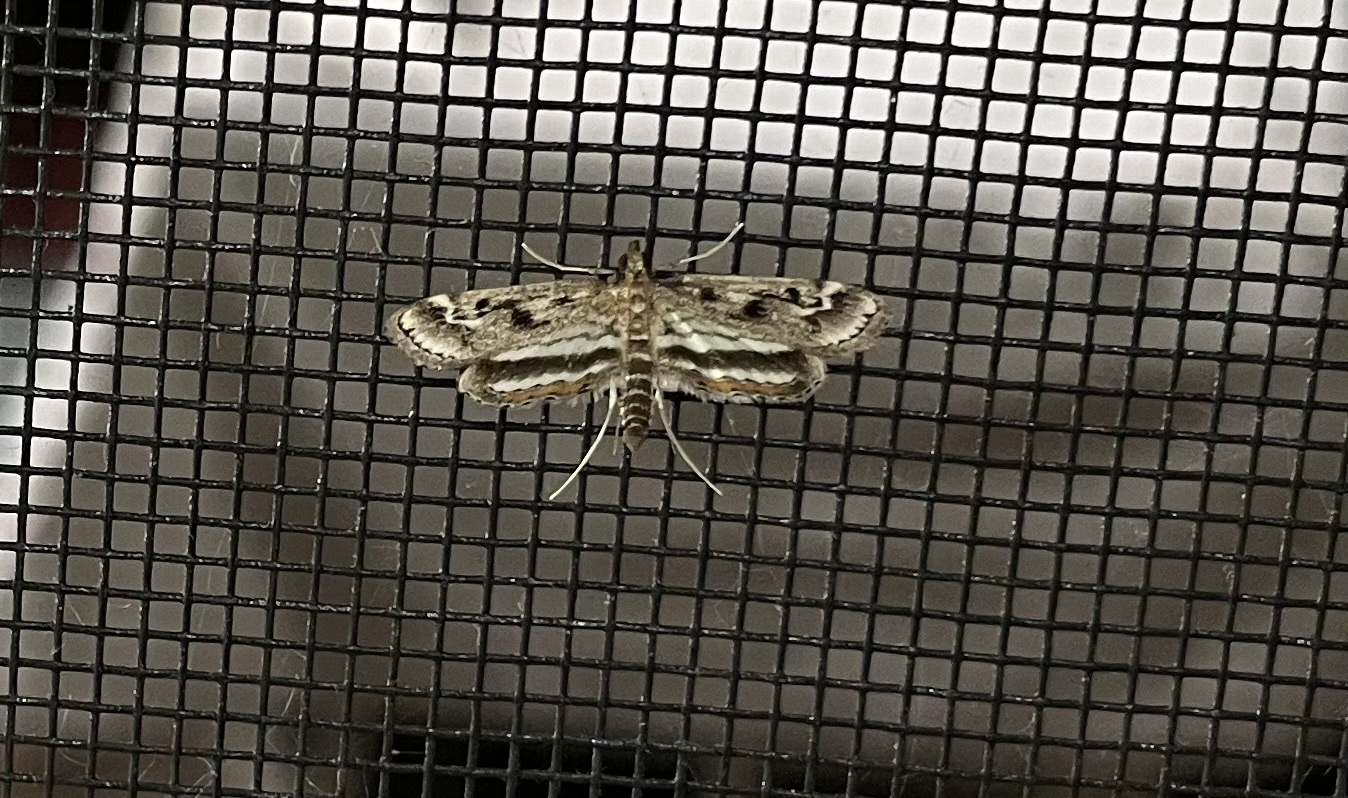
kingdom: Animalia
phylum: Arthropoda
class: Insecta
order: Lepidoptera
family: Crambidae
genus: Parapoynx
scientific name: Parapoynx obscuralis
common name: American china-mark
